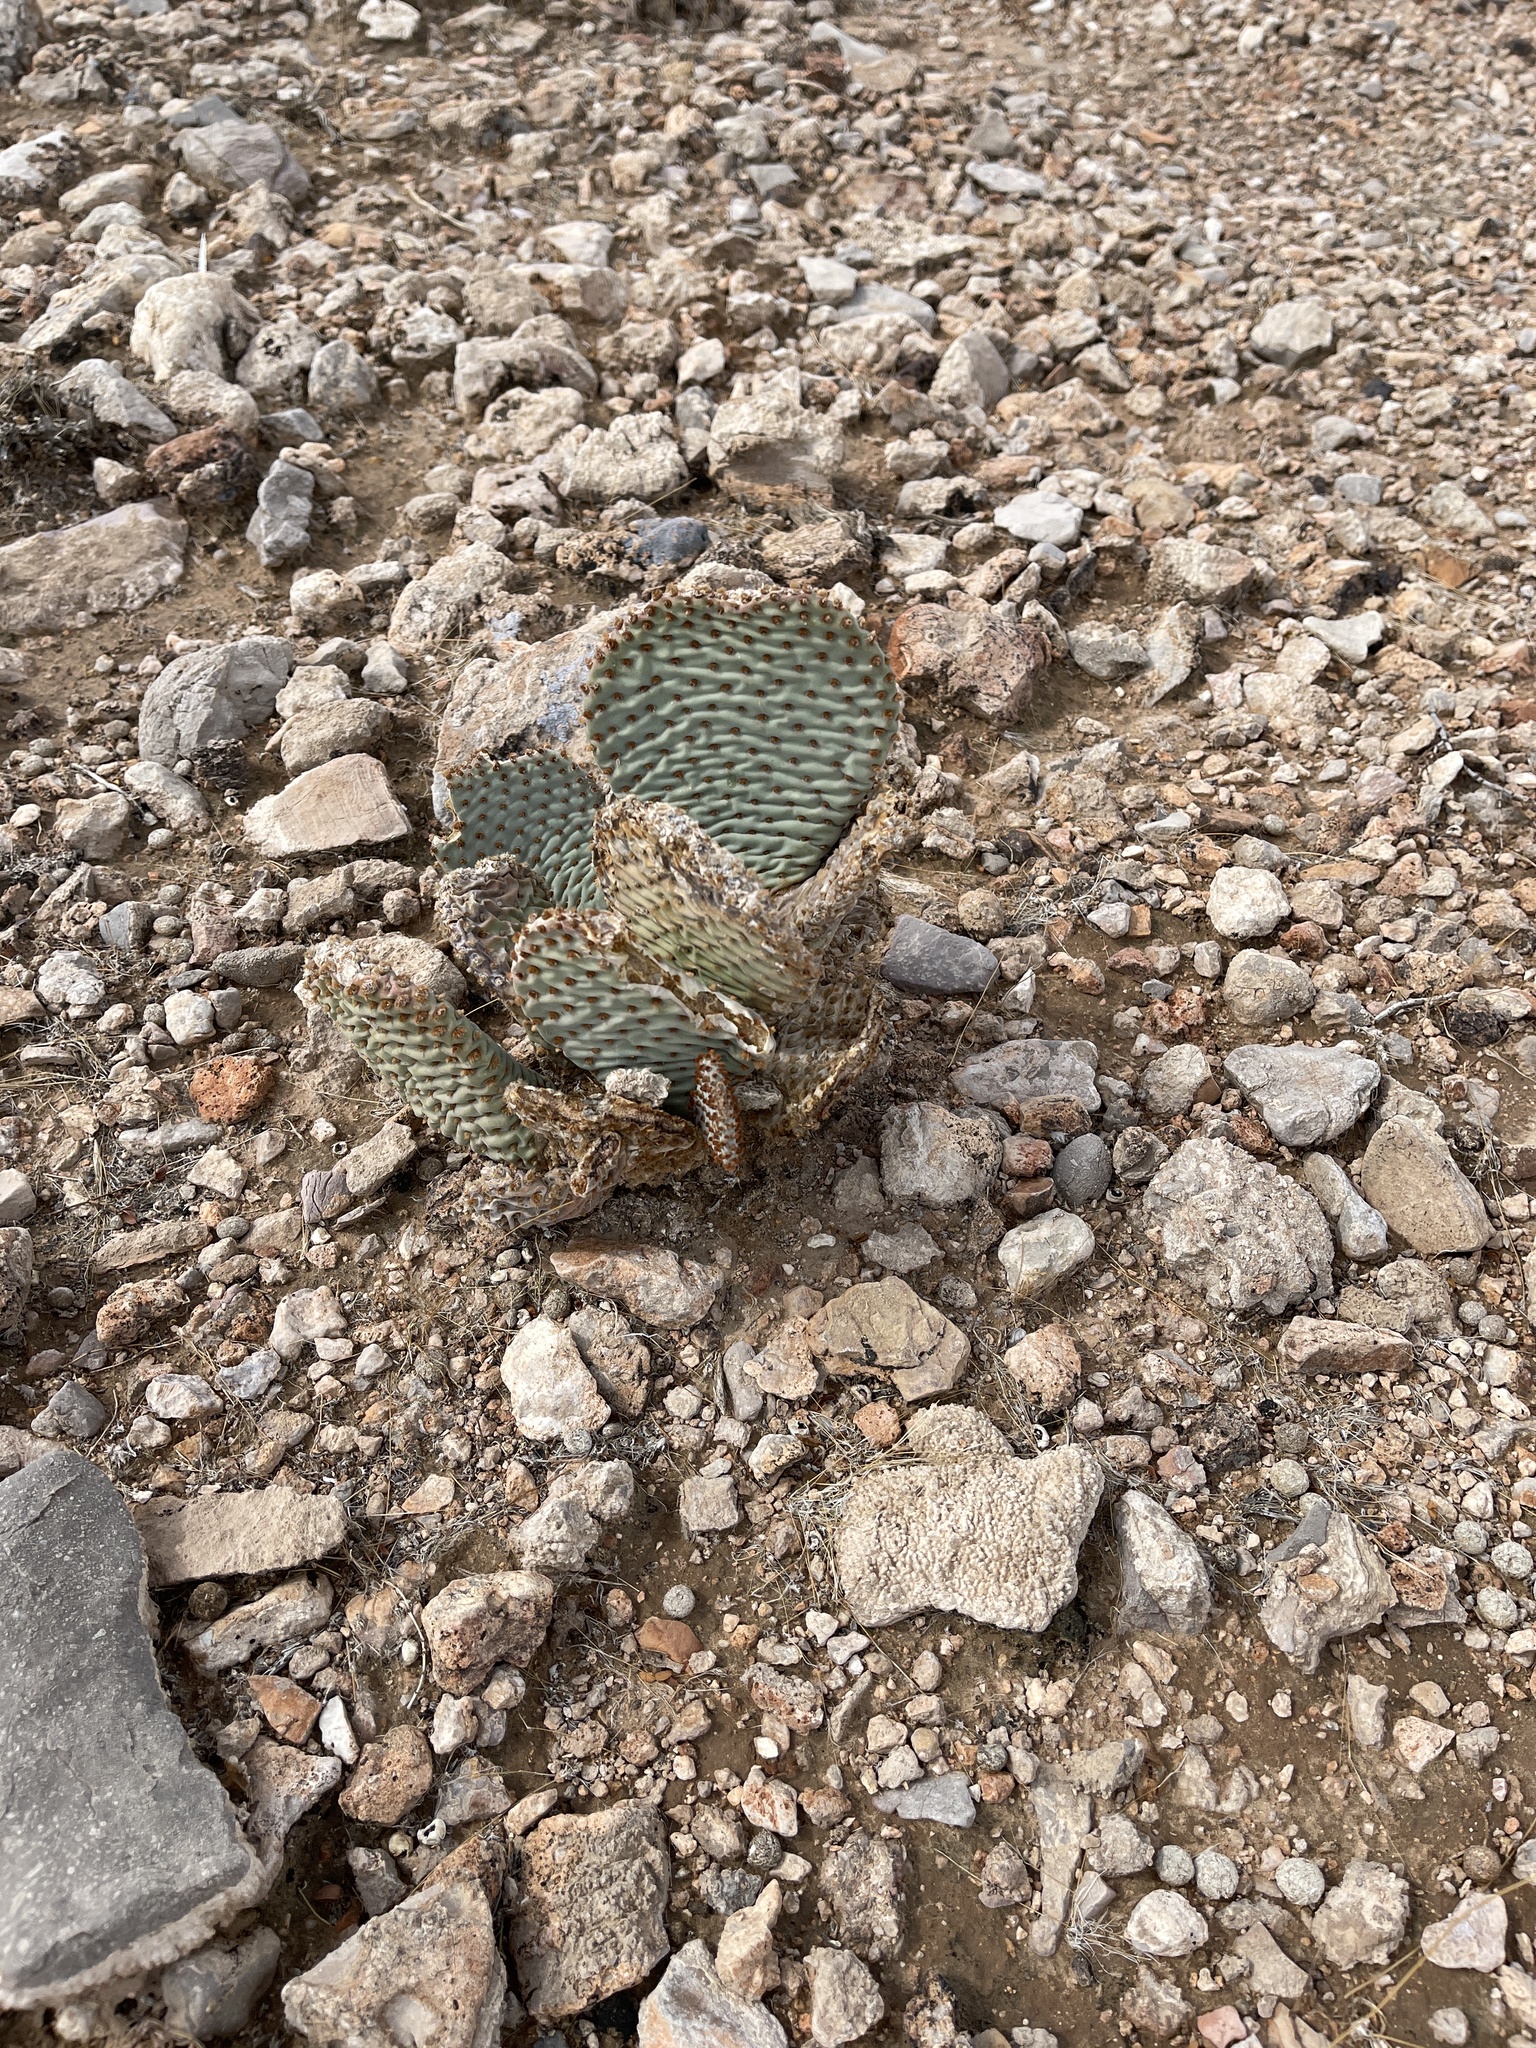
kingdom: Plantae
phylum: Tracheophyta
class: Magnoliopsida
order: Caryophyllales
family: Cactaceae
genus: Opuntia
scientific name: Opuntia basilaris
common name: Beavertail prickly-pear
